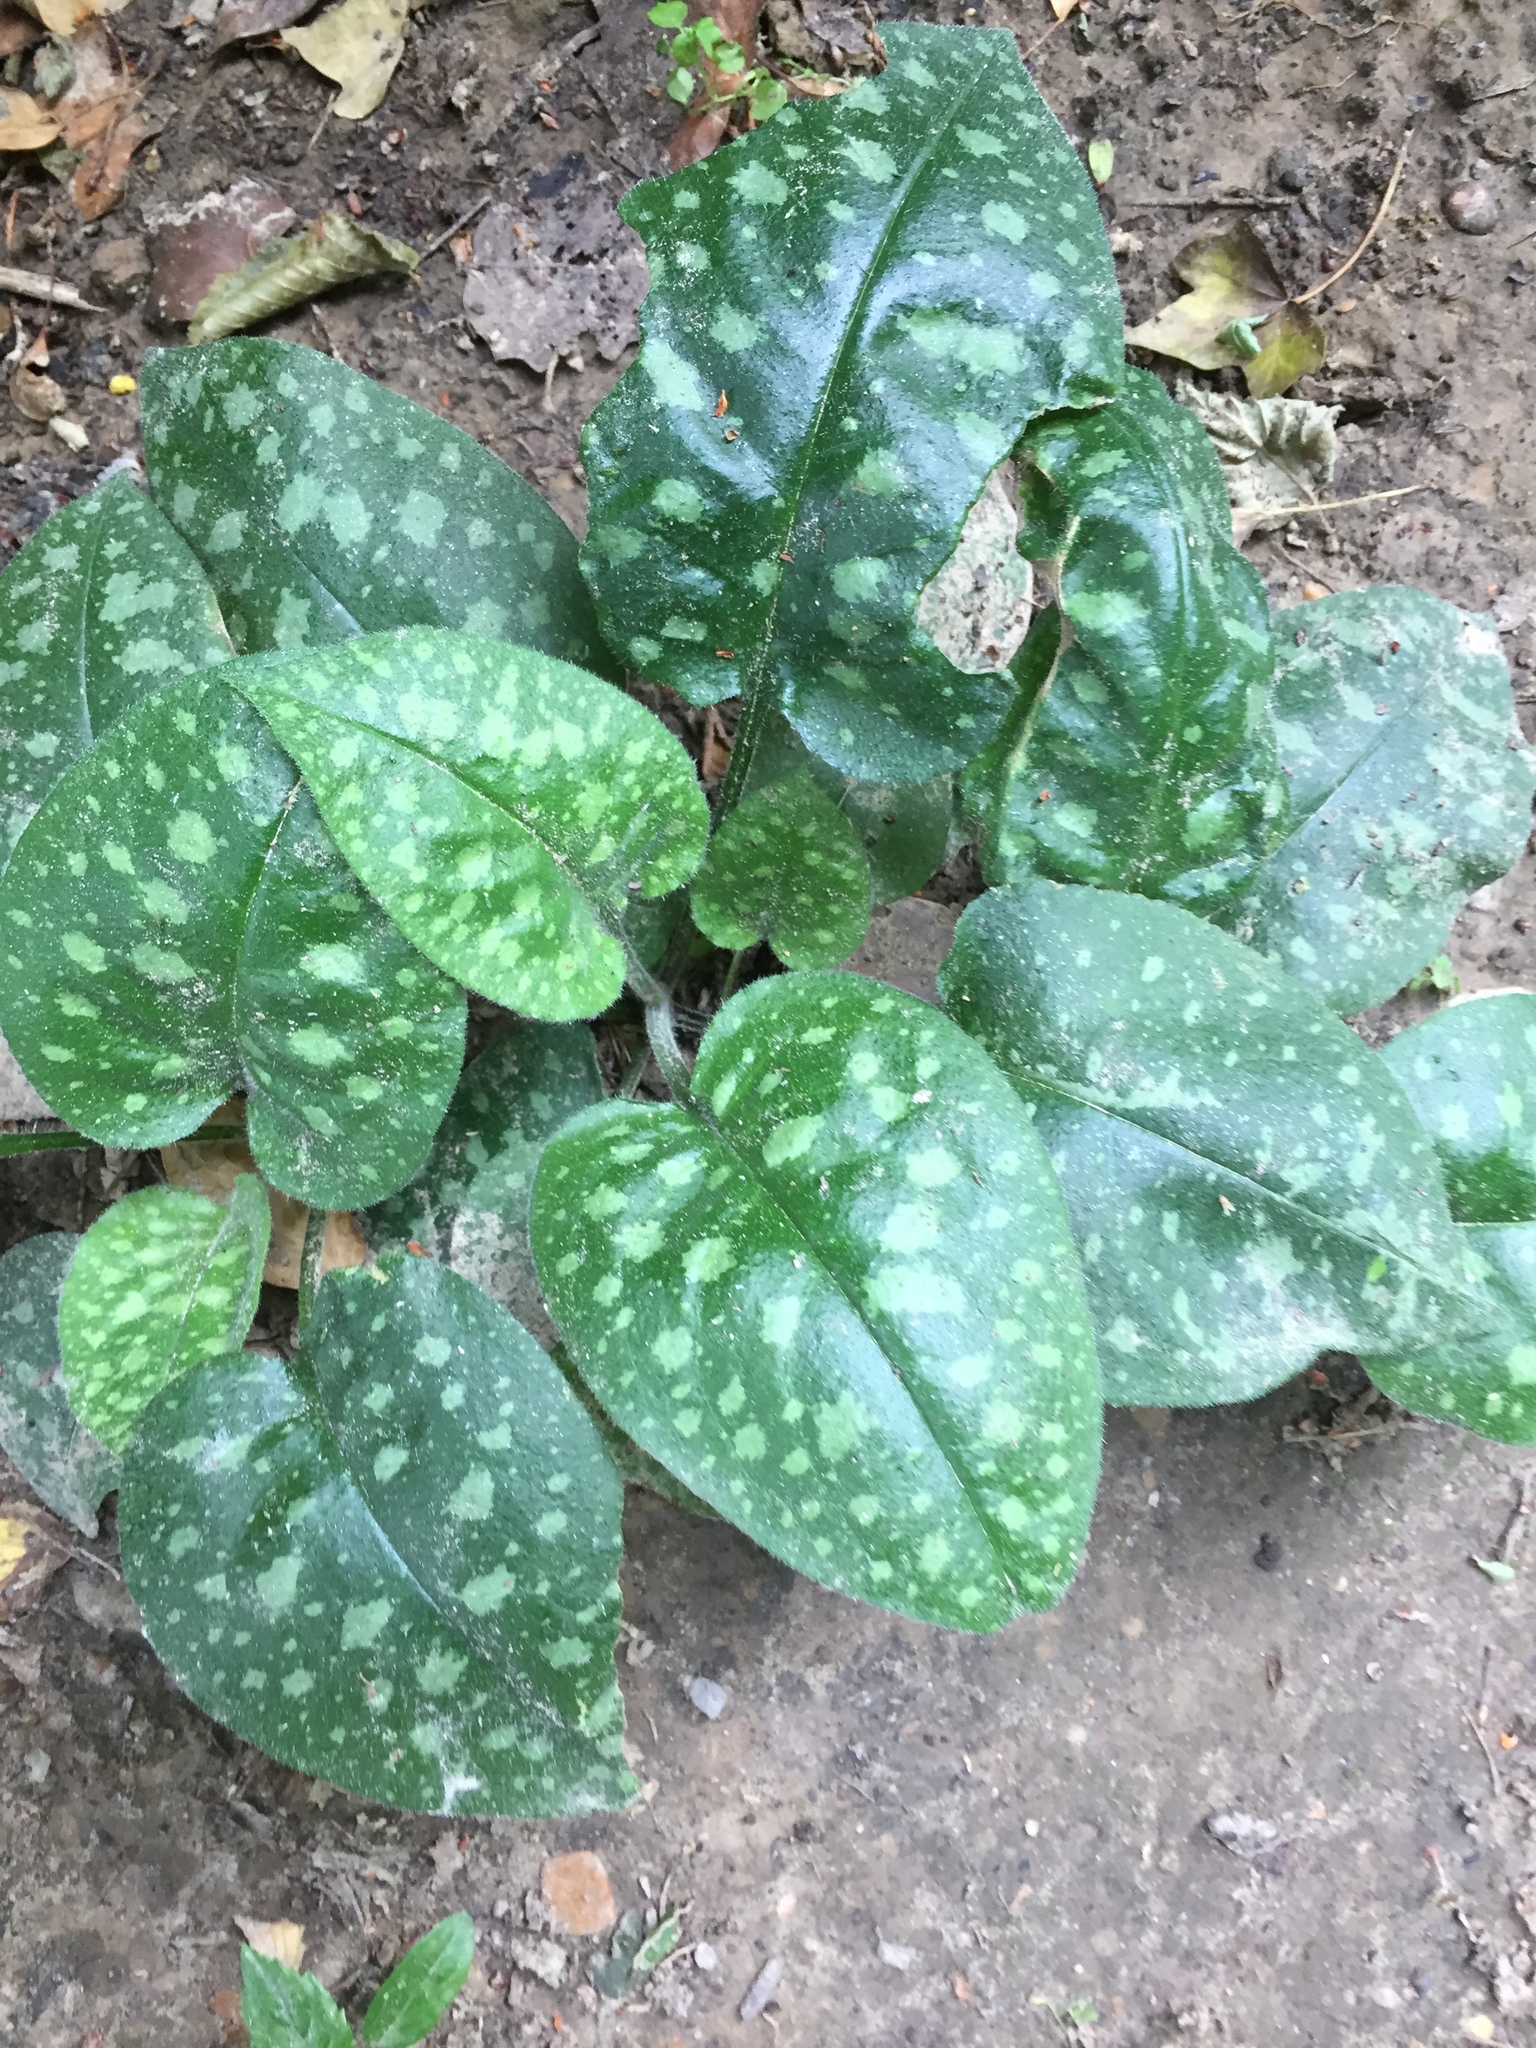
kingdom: Plantae
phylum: Tracheophyta
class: Magnoliopsida
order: Boraginales
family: Boraginaceae
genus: Pulmonaria
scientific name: Pulmonaria officinalis
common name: Lungwort
